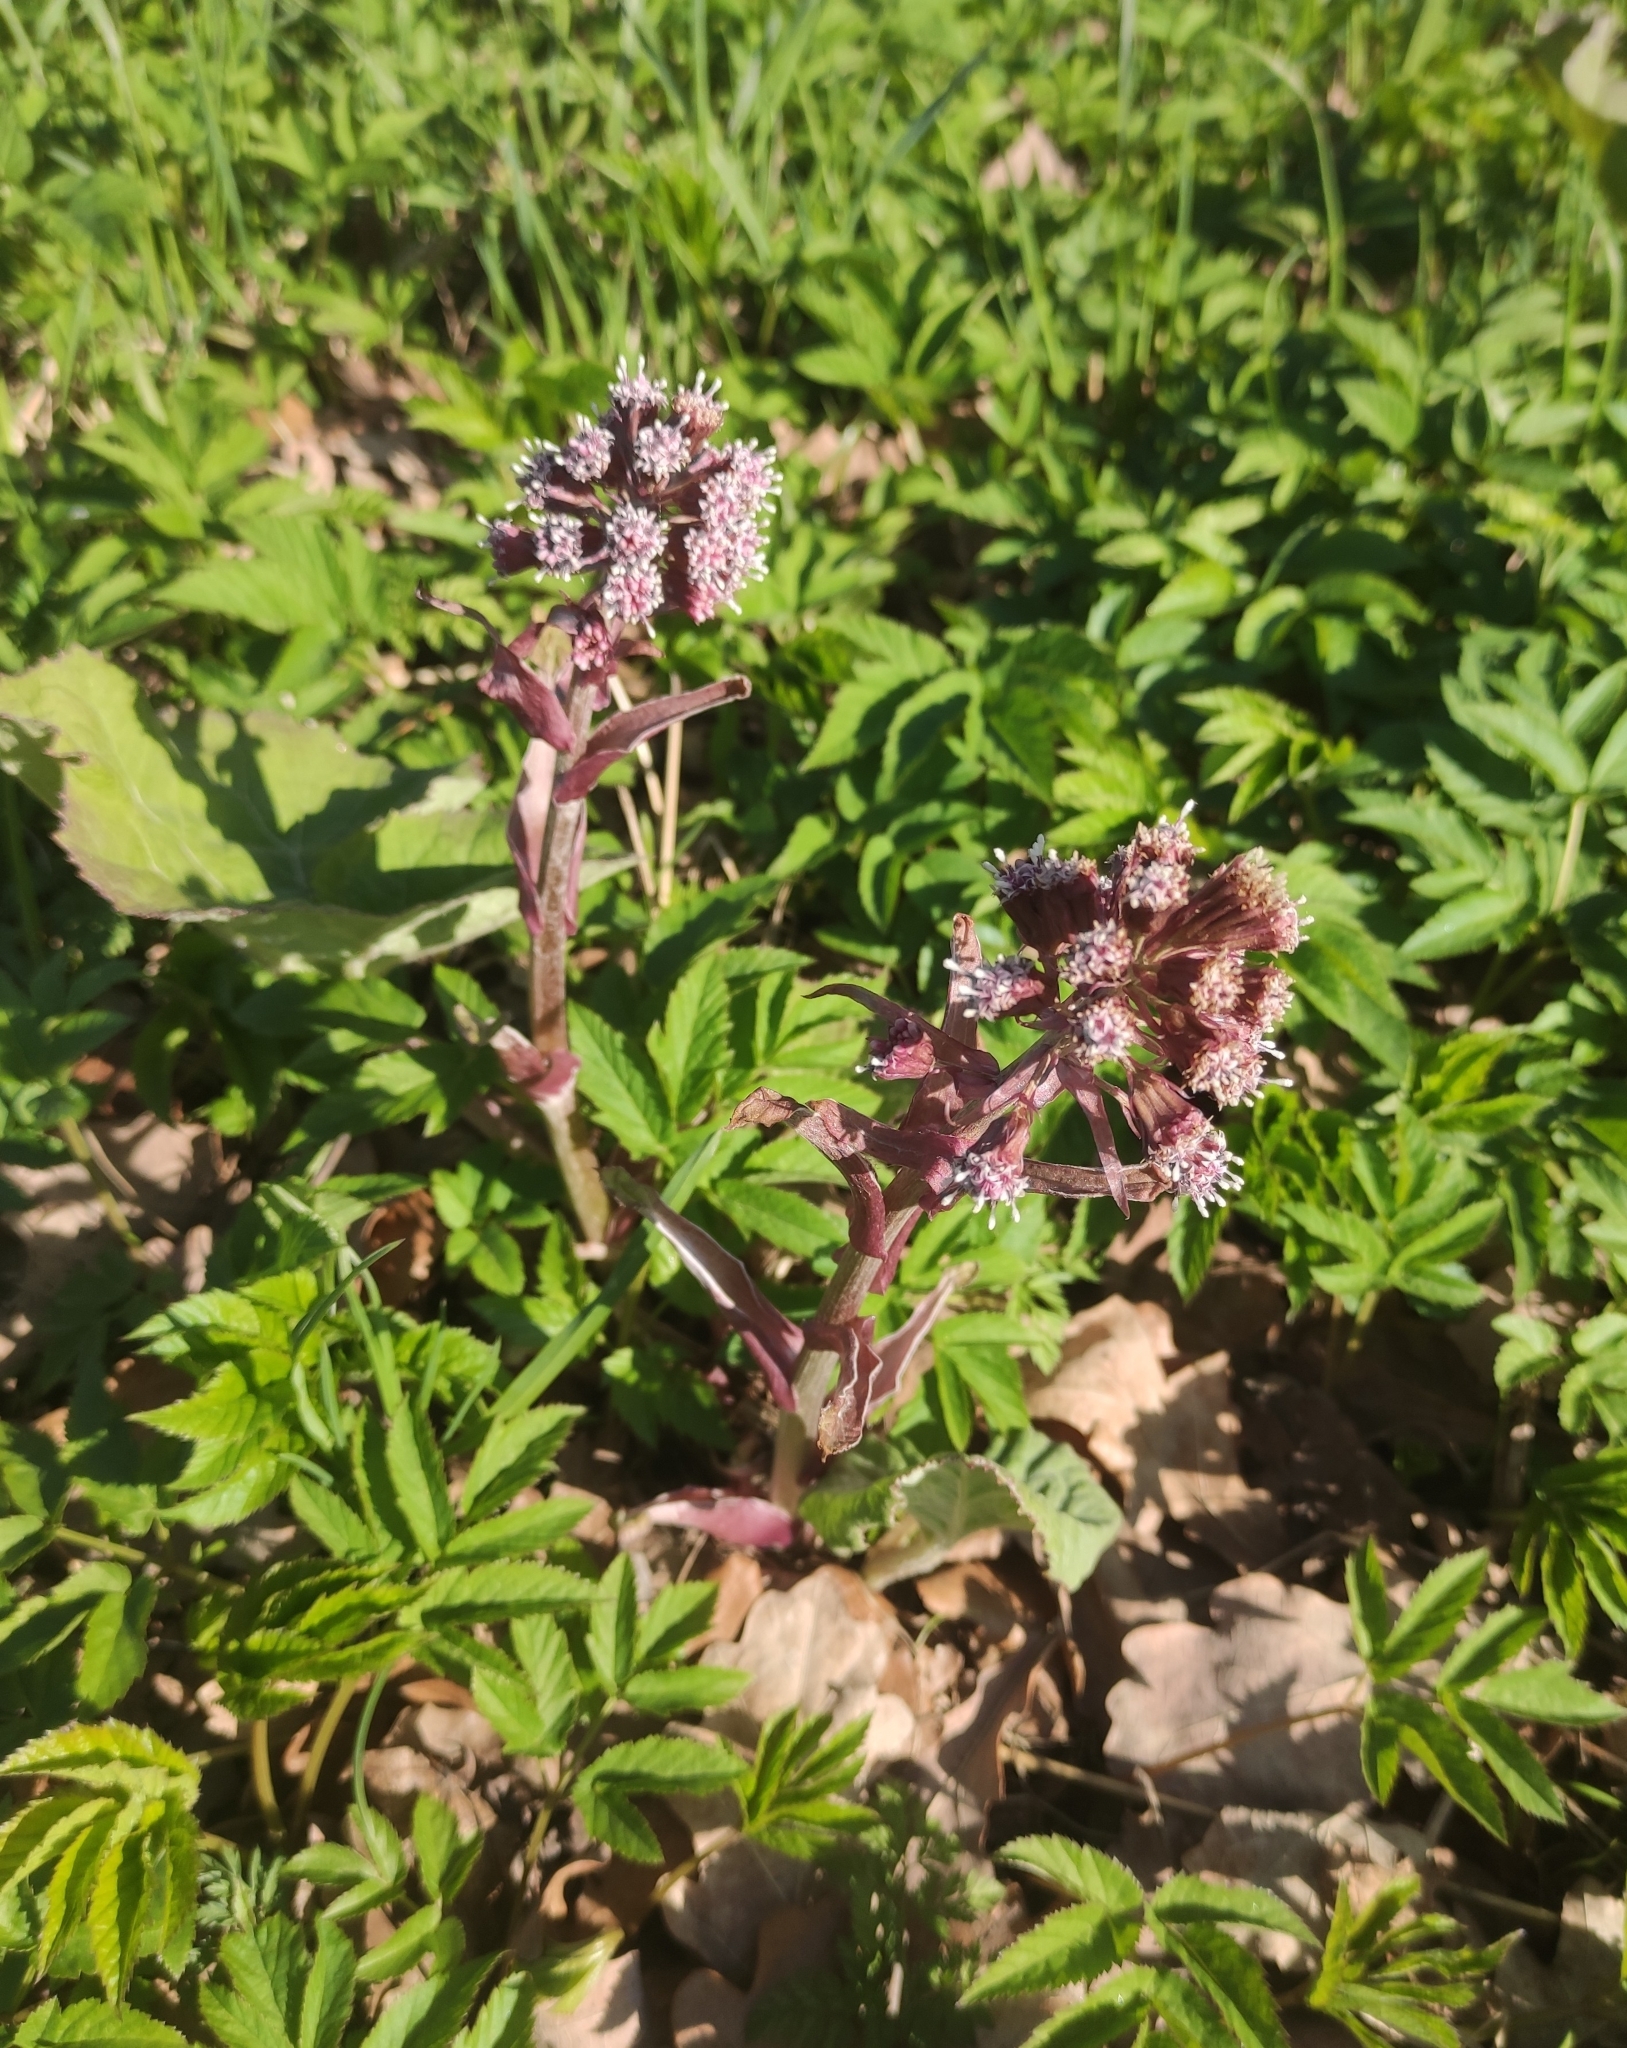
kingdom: Plantae
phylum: Tracheophyta
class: Magnoliopsida
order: Asterales
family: Asteraceae
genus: Petasites
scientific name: Petasites hybridus
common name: Butterbur
